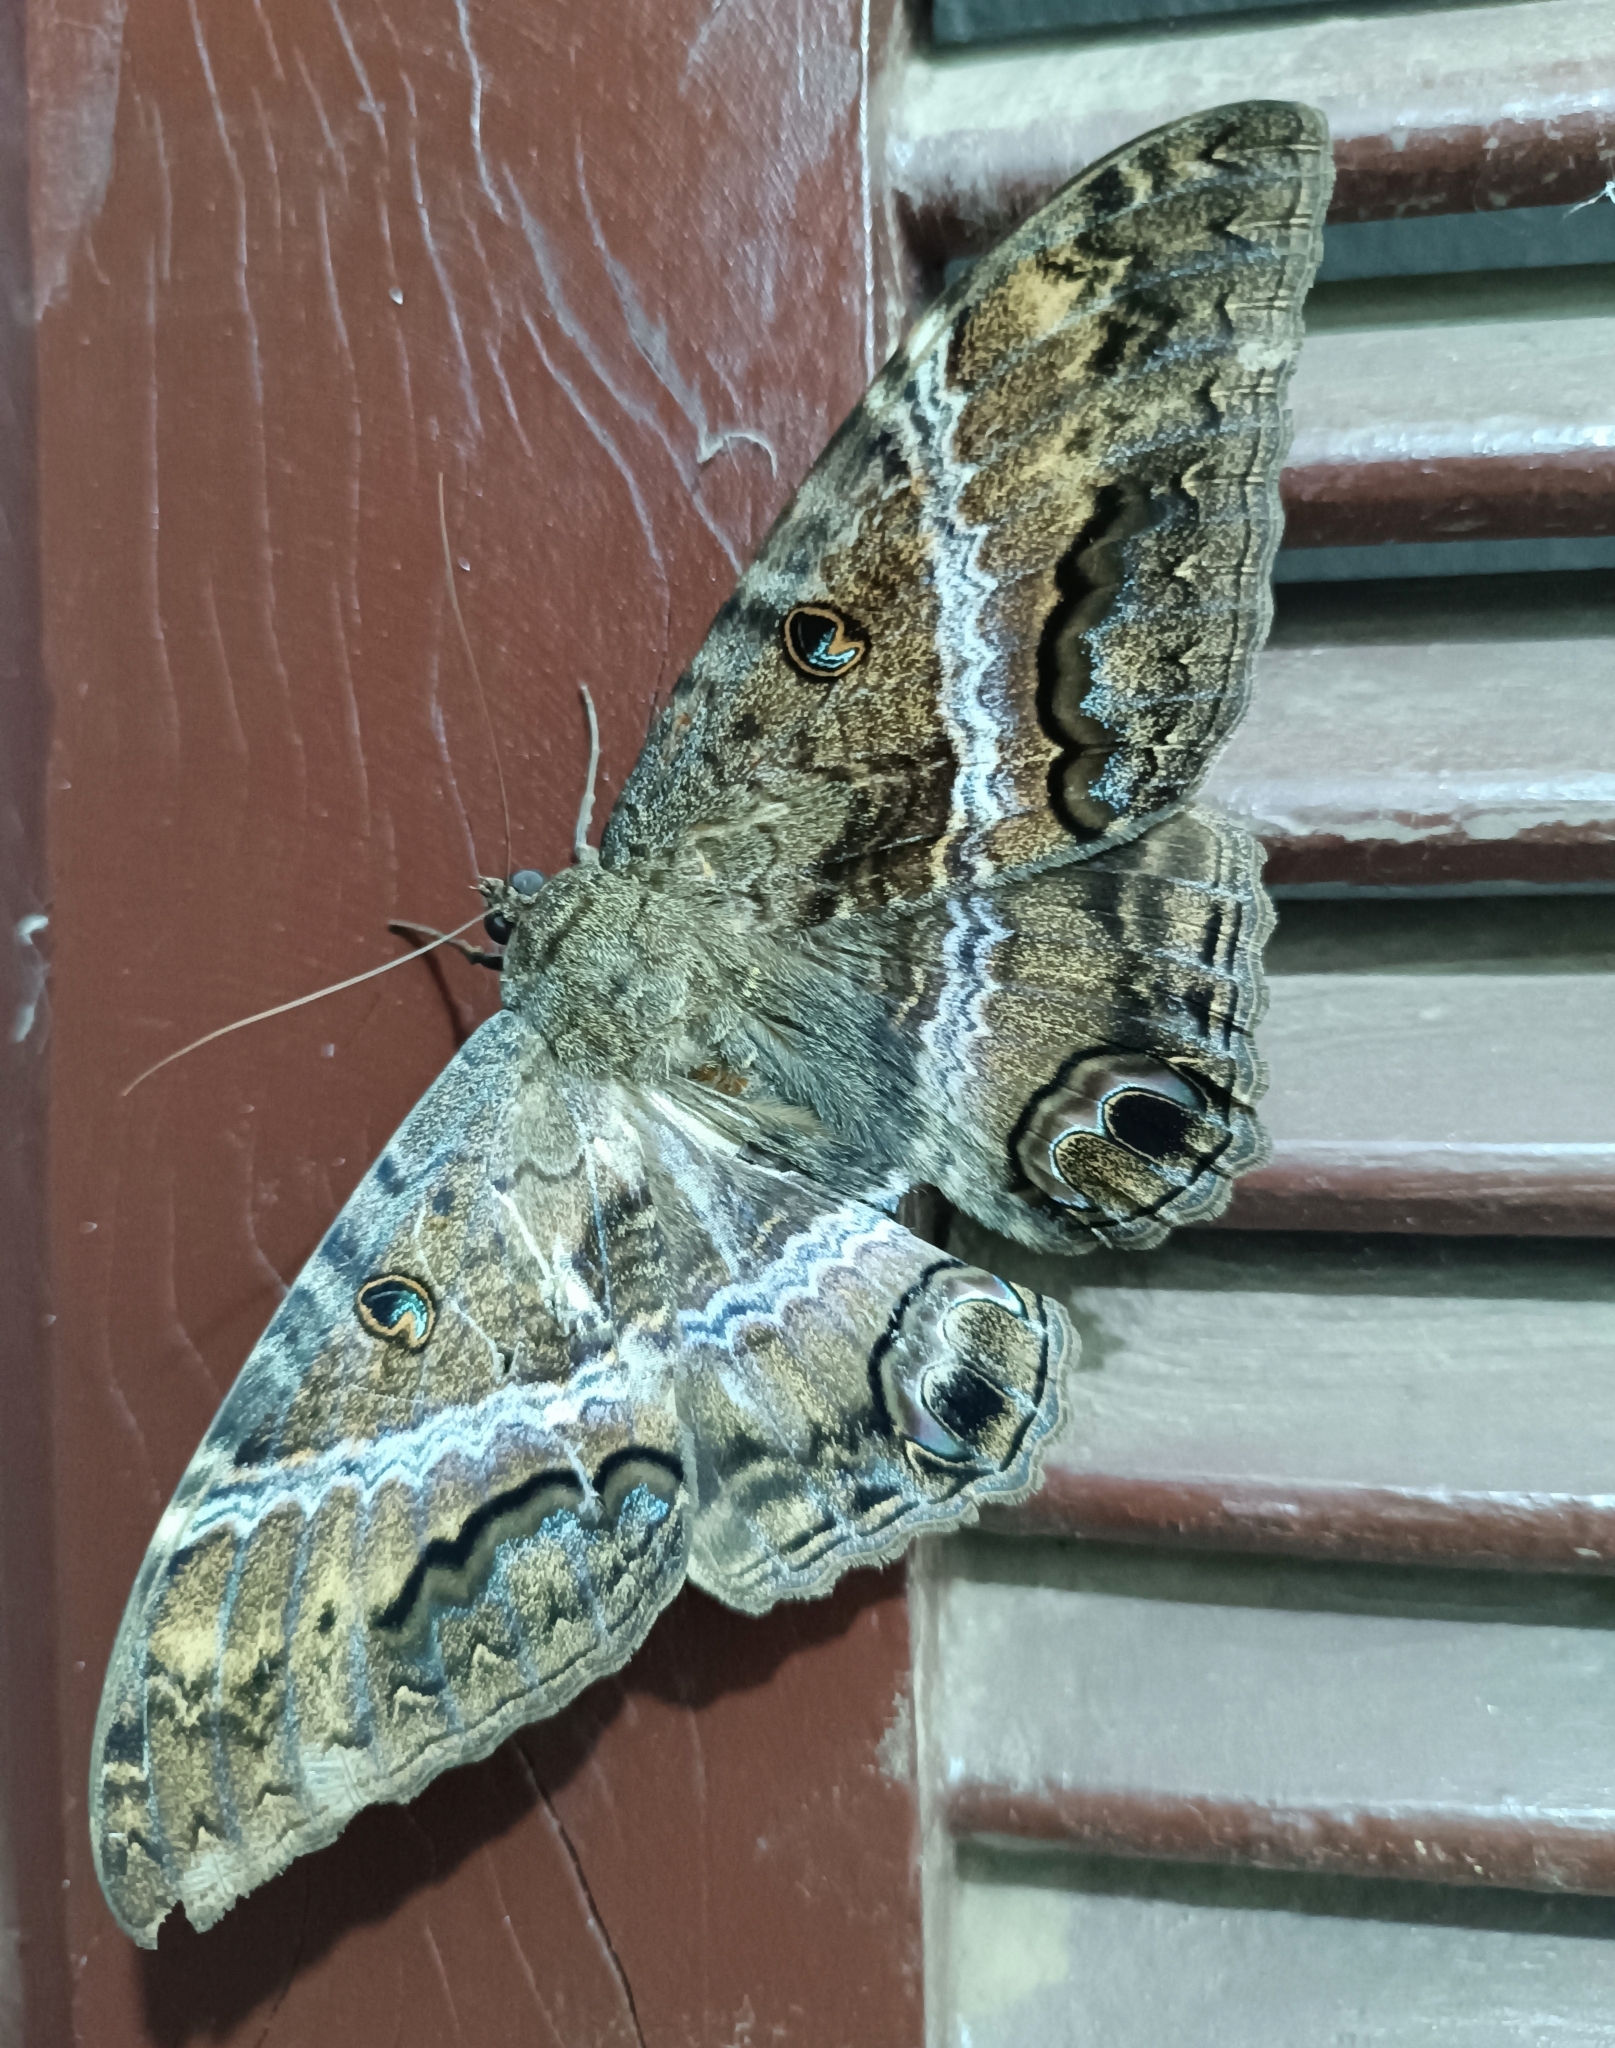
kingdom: Animalia
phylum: Arthropoda
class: Insecta
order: Lepidoptera
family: Erebidae
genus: Ascalapha
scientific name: Ascalapha odorata
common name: Black witch
